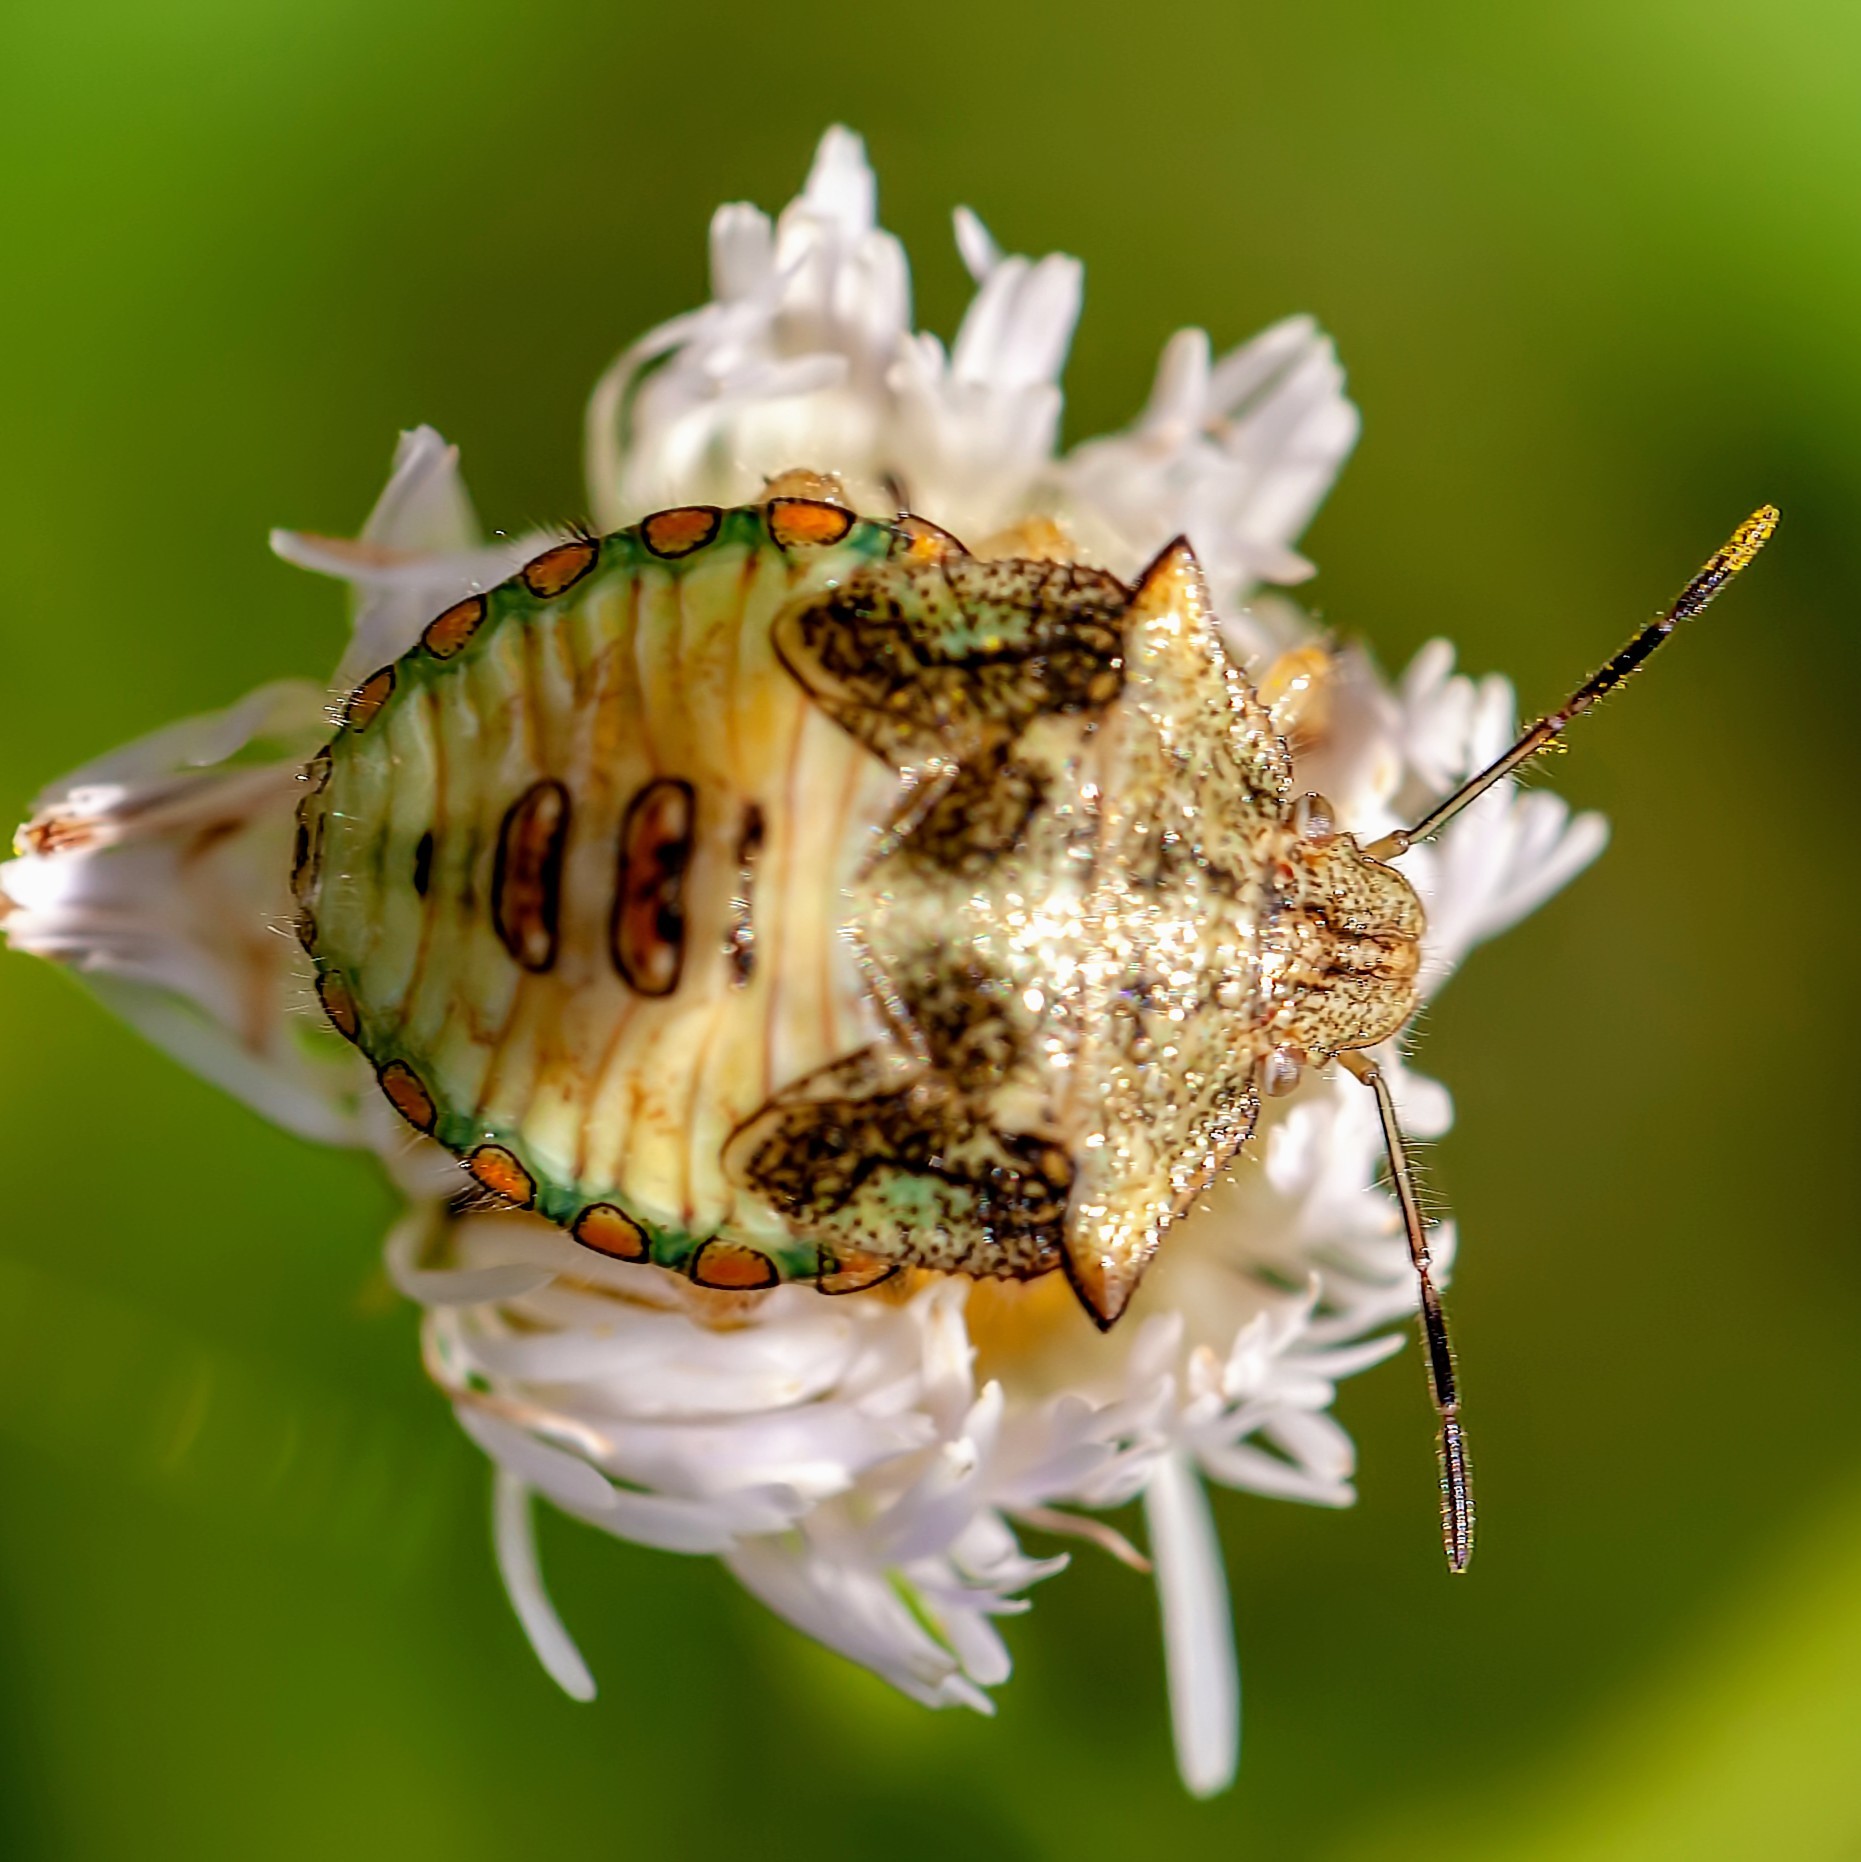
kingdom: Animalia
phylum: Arthropoda
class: Insecta
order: Hemiptera
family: Pentatomidae
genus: Thyanta
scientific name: Thyanta perditor
